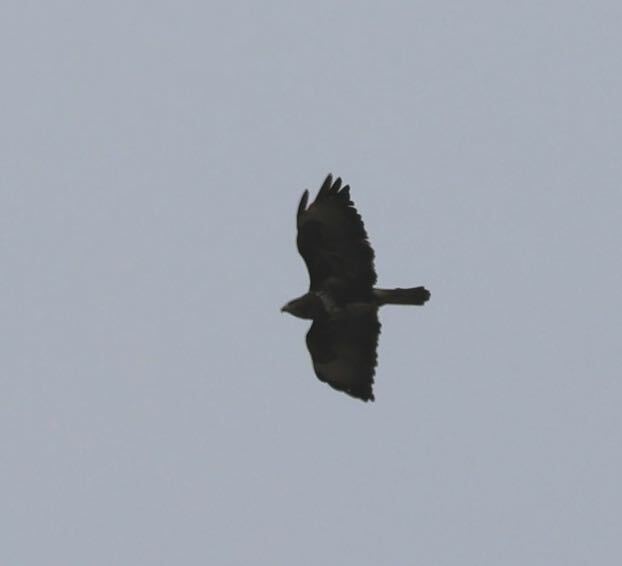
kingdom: Animalia
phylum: Chordata
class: Aves
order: Accipitriformes
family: Accipitridae
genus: Buteo
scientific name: Buteo buteo
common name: Common buzzard
